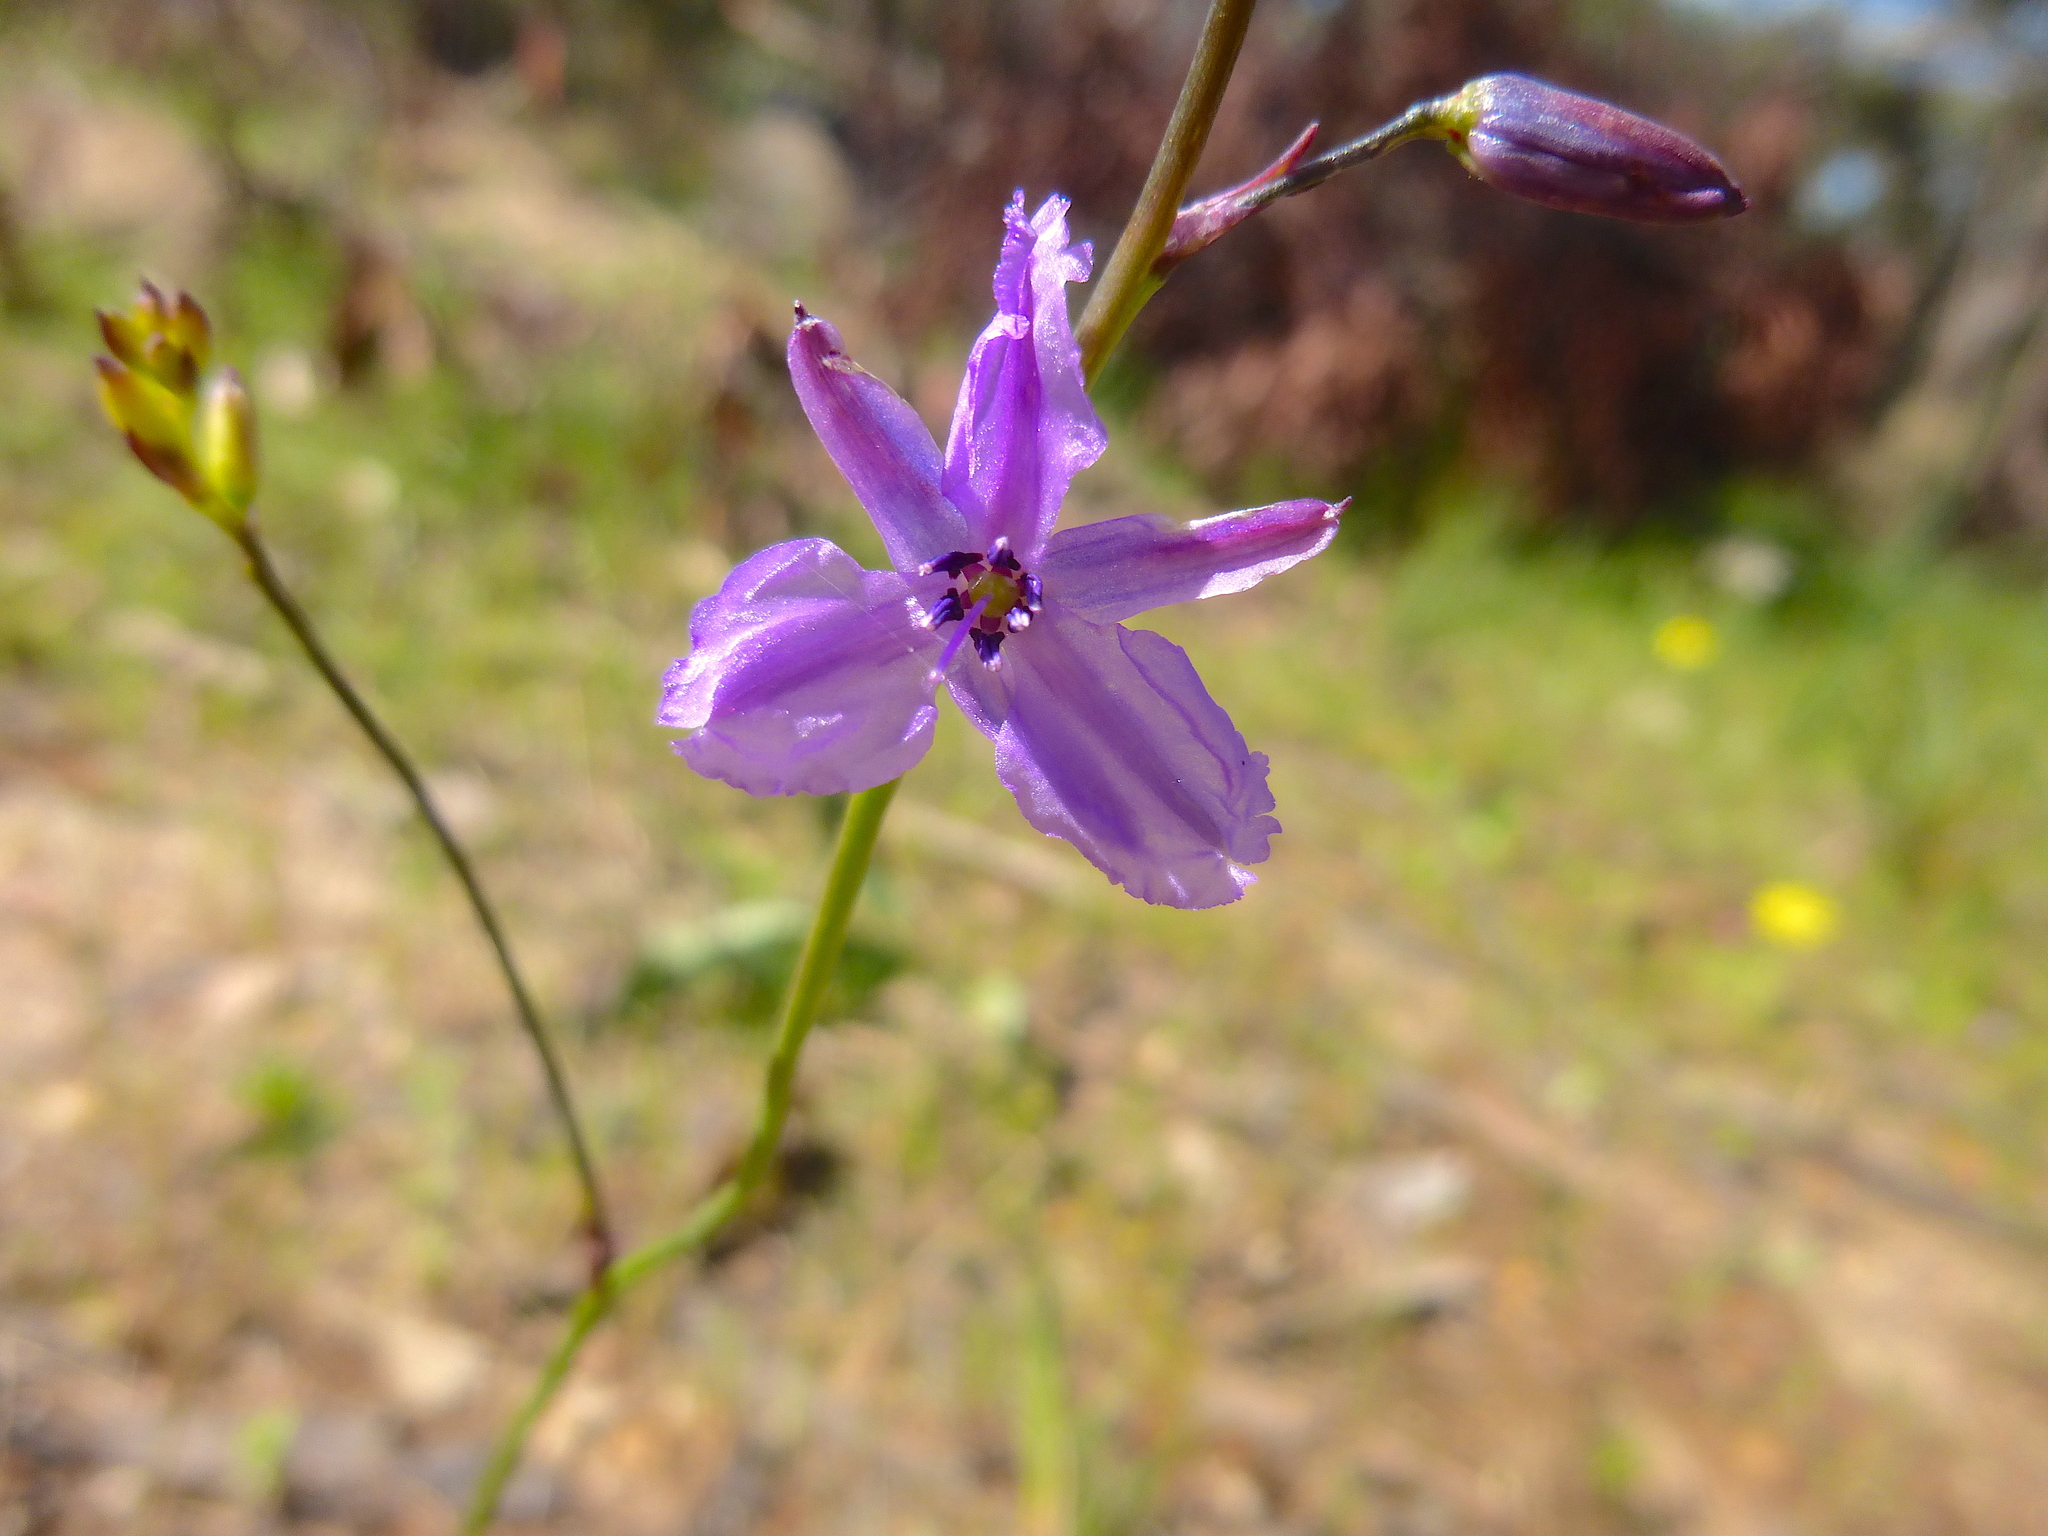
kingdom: Plantae
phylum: Tracheophyta
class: Liliopsida
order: Asparagales
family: Asparagaceae
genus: Arthropodium
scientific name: Arthropodium strictum
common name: Chocolate-lily
